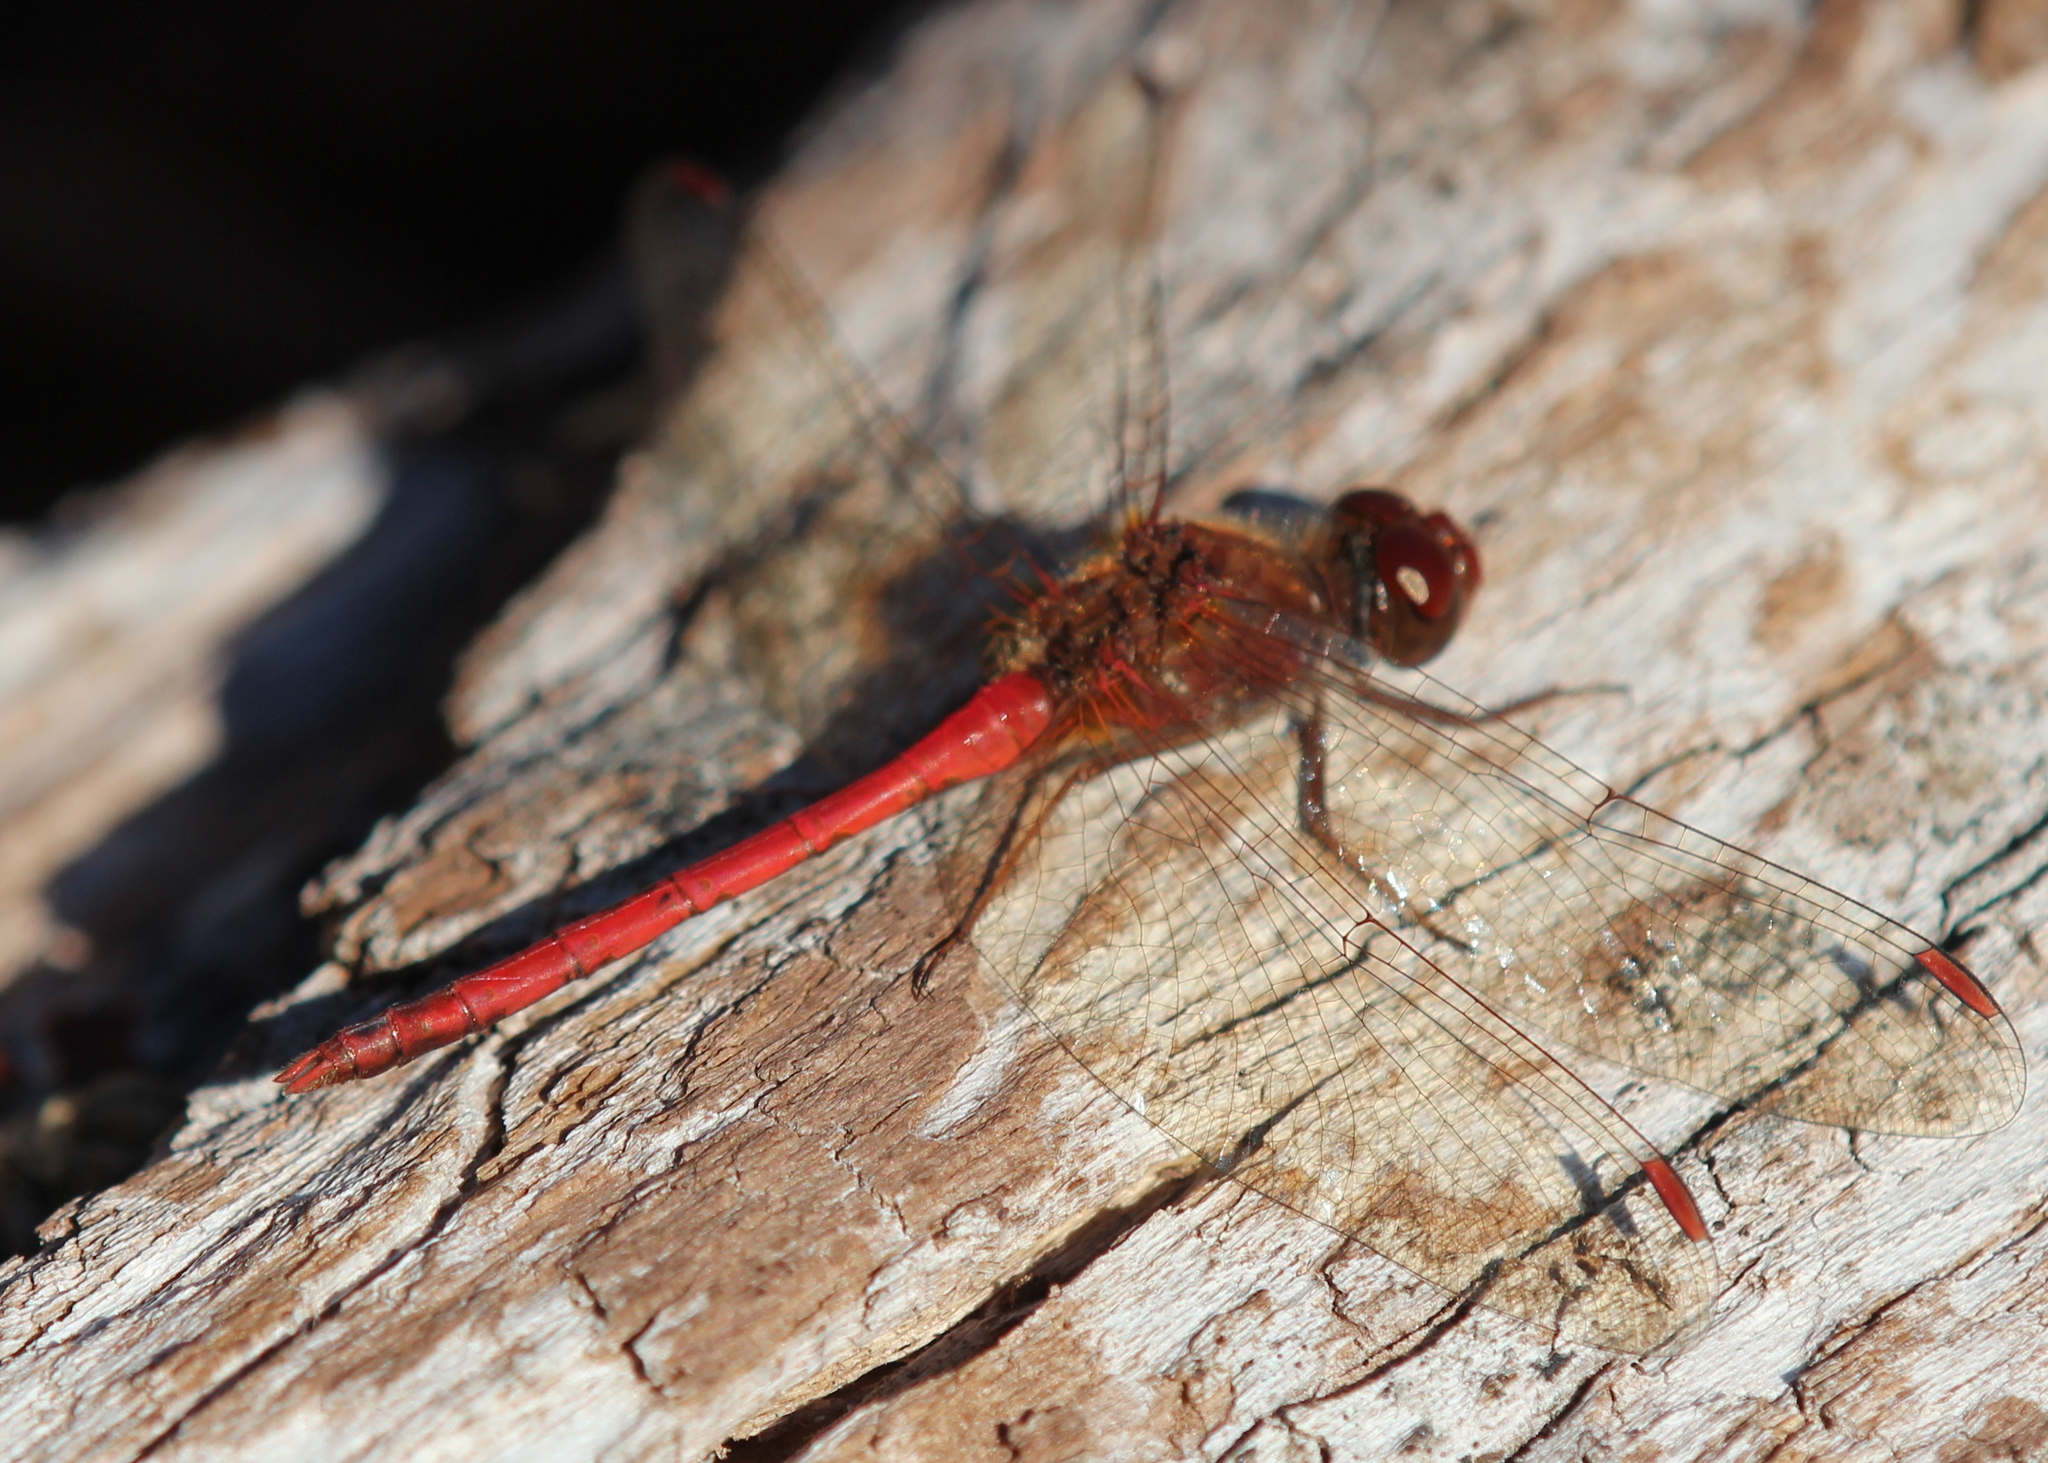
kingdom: Animalia
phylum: Arthropoda
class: Insecta
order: Odonata
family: Libellulidae
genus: Sympetrum
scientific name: Sympetrum vicinum
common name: Autumn meadowhawk
